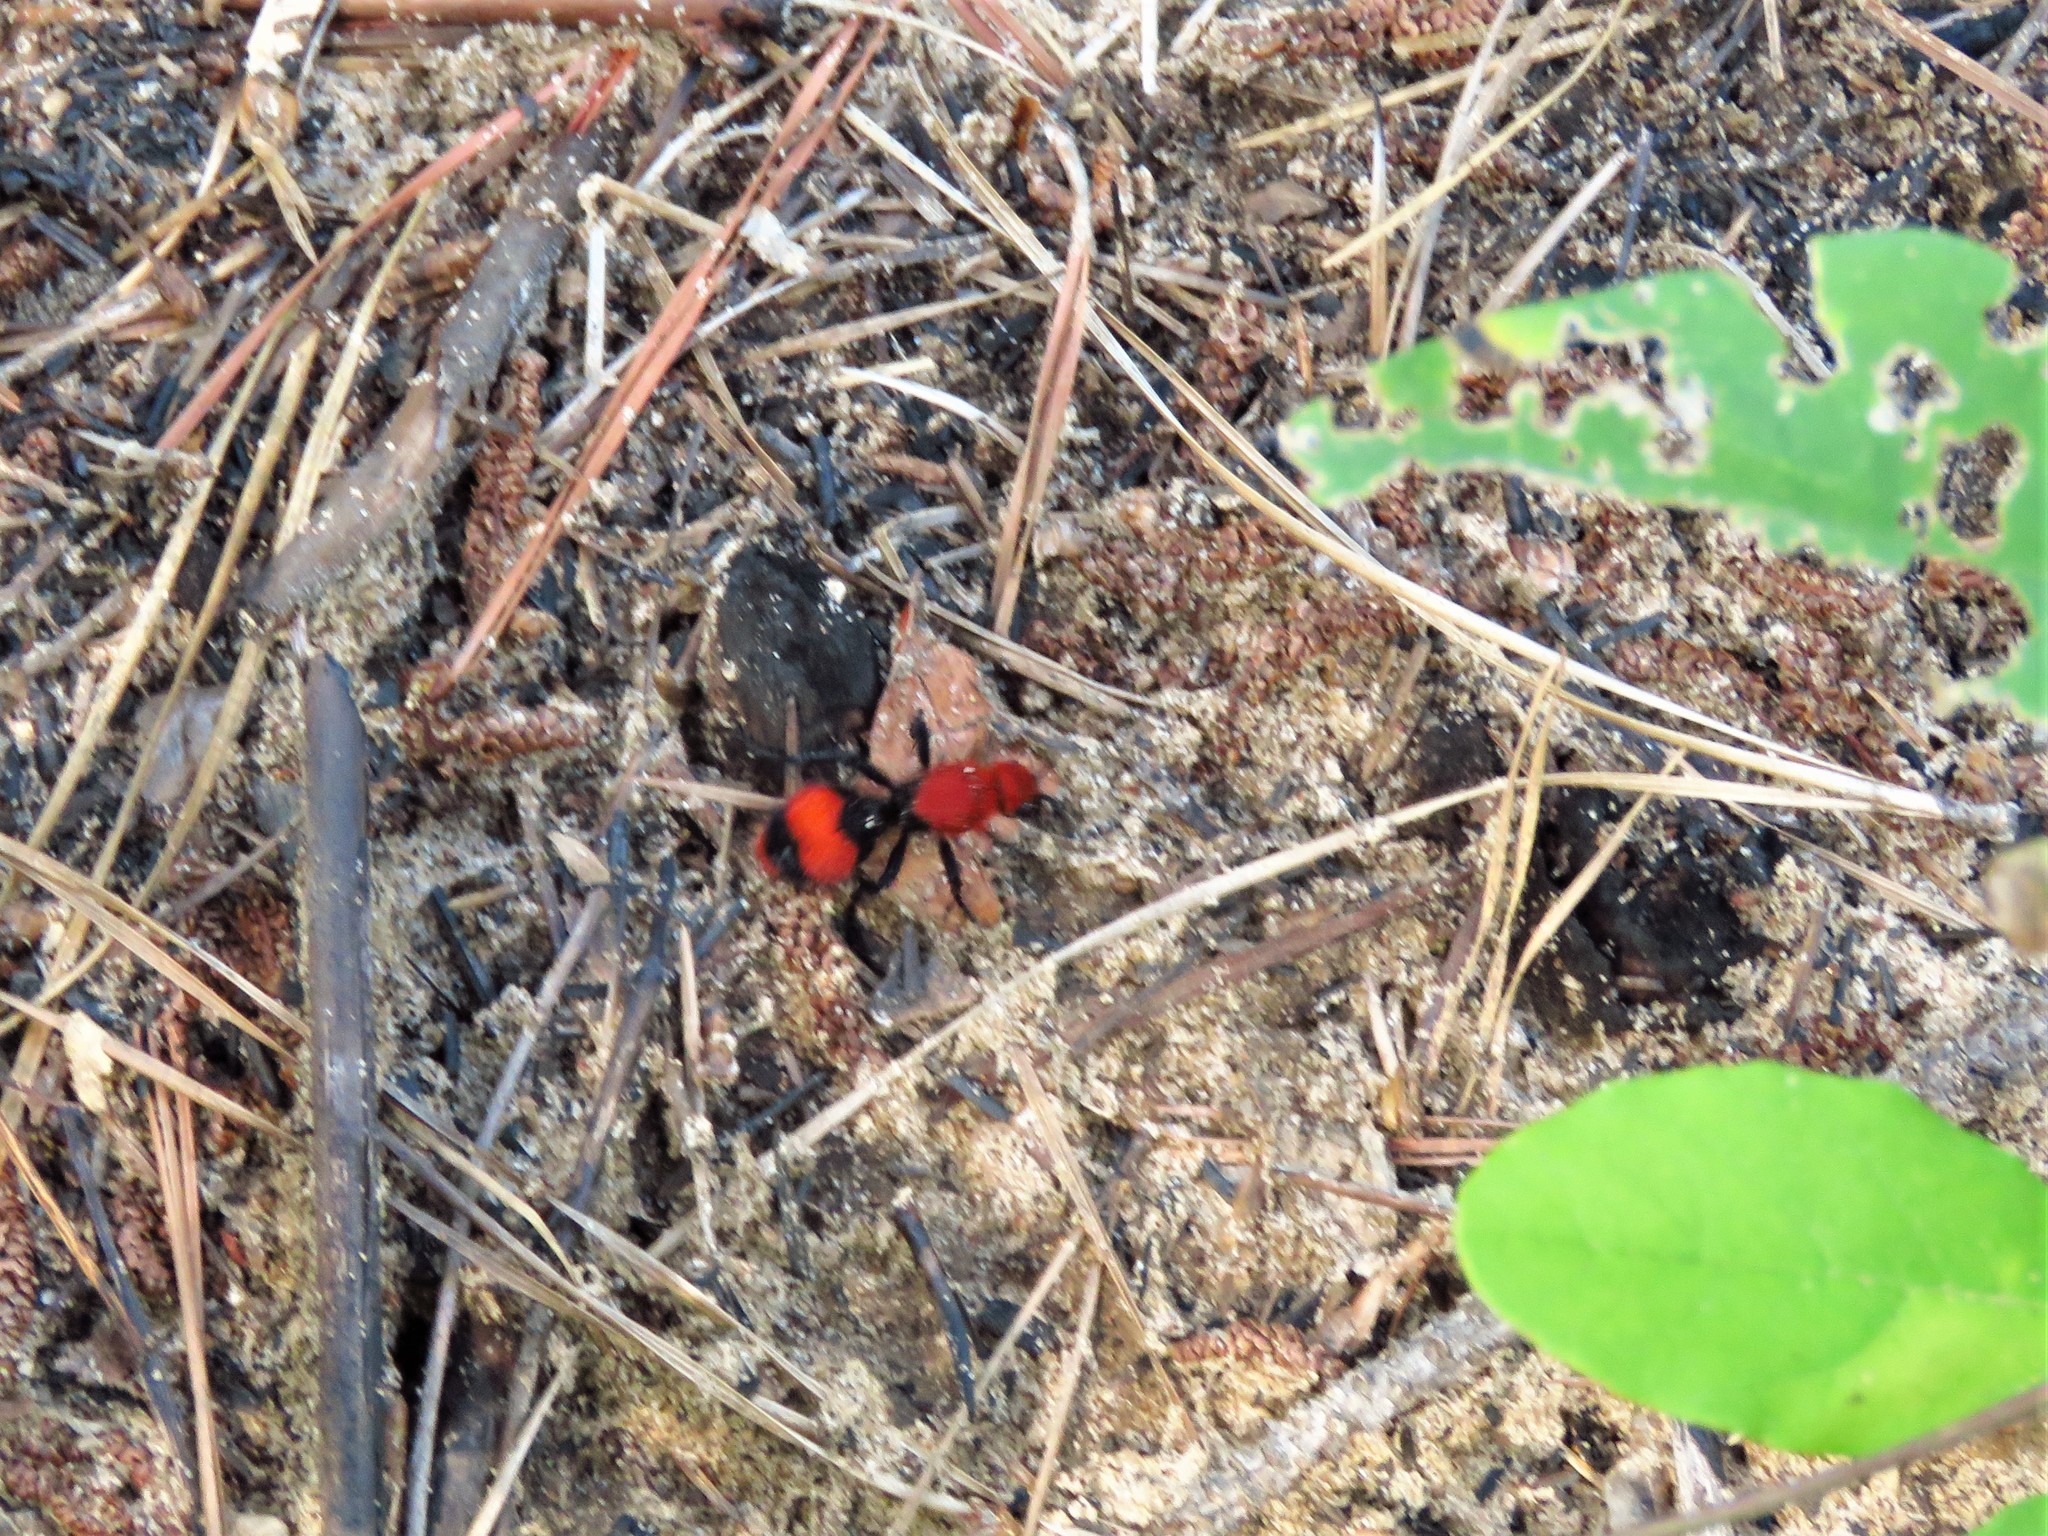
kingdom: Animalia
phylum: Arthropoda
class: Insecta
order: Hymenoptera
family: Mutillidae
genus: Dasymutilla
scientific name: Dasymutilla occidentalis
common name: Common eastern velvet ant
